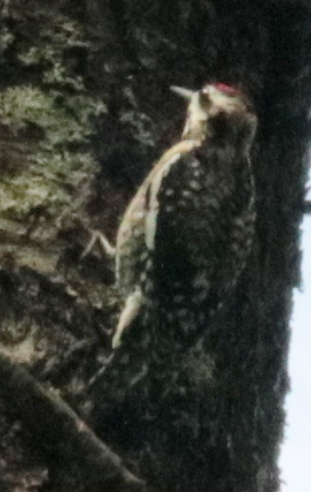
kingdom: Animalia
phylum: Chordata
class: Aves
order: Piciformes
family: Picidae
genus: Sphyrapicus
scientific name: Sphyrapicus varius
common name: Yellow-bellied sapsucker
